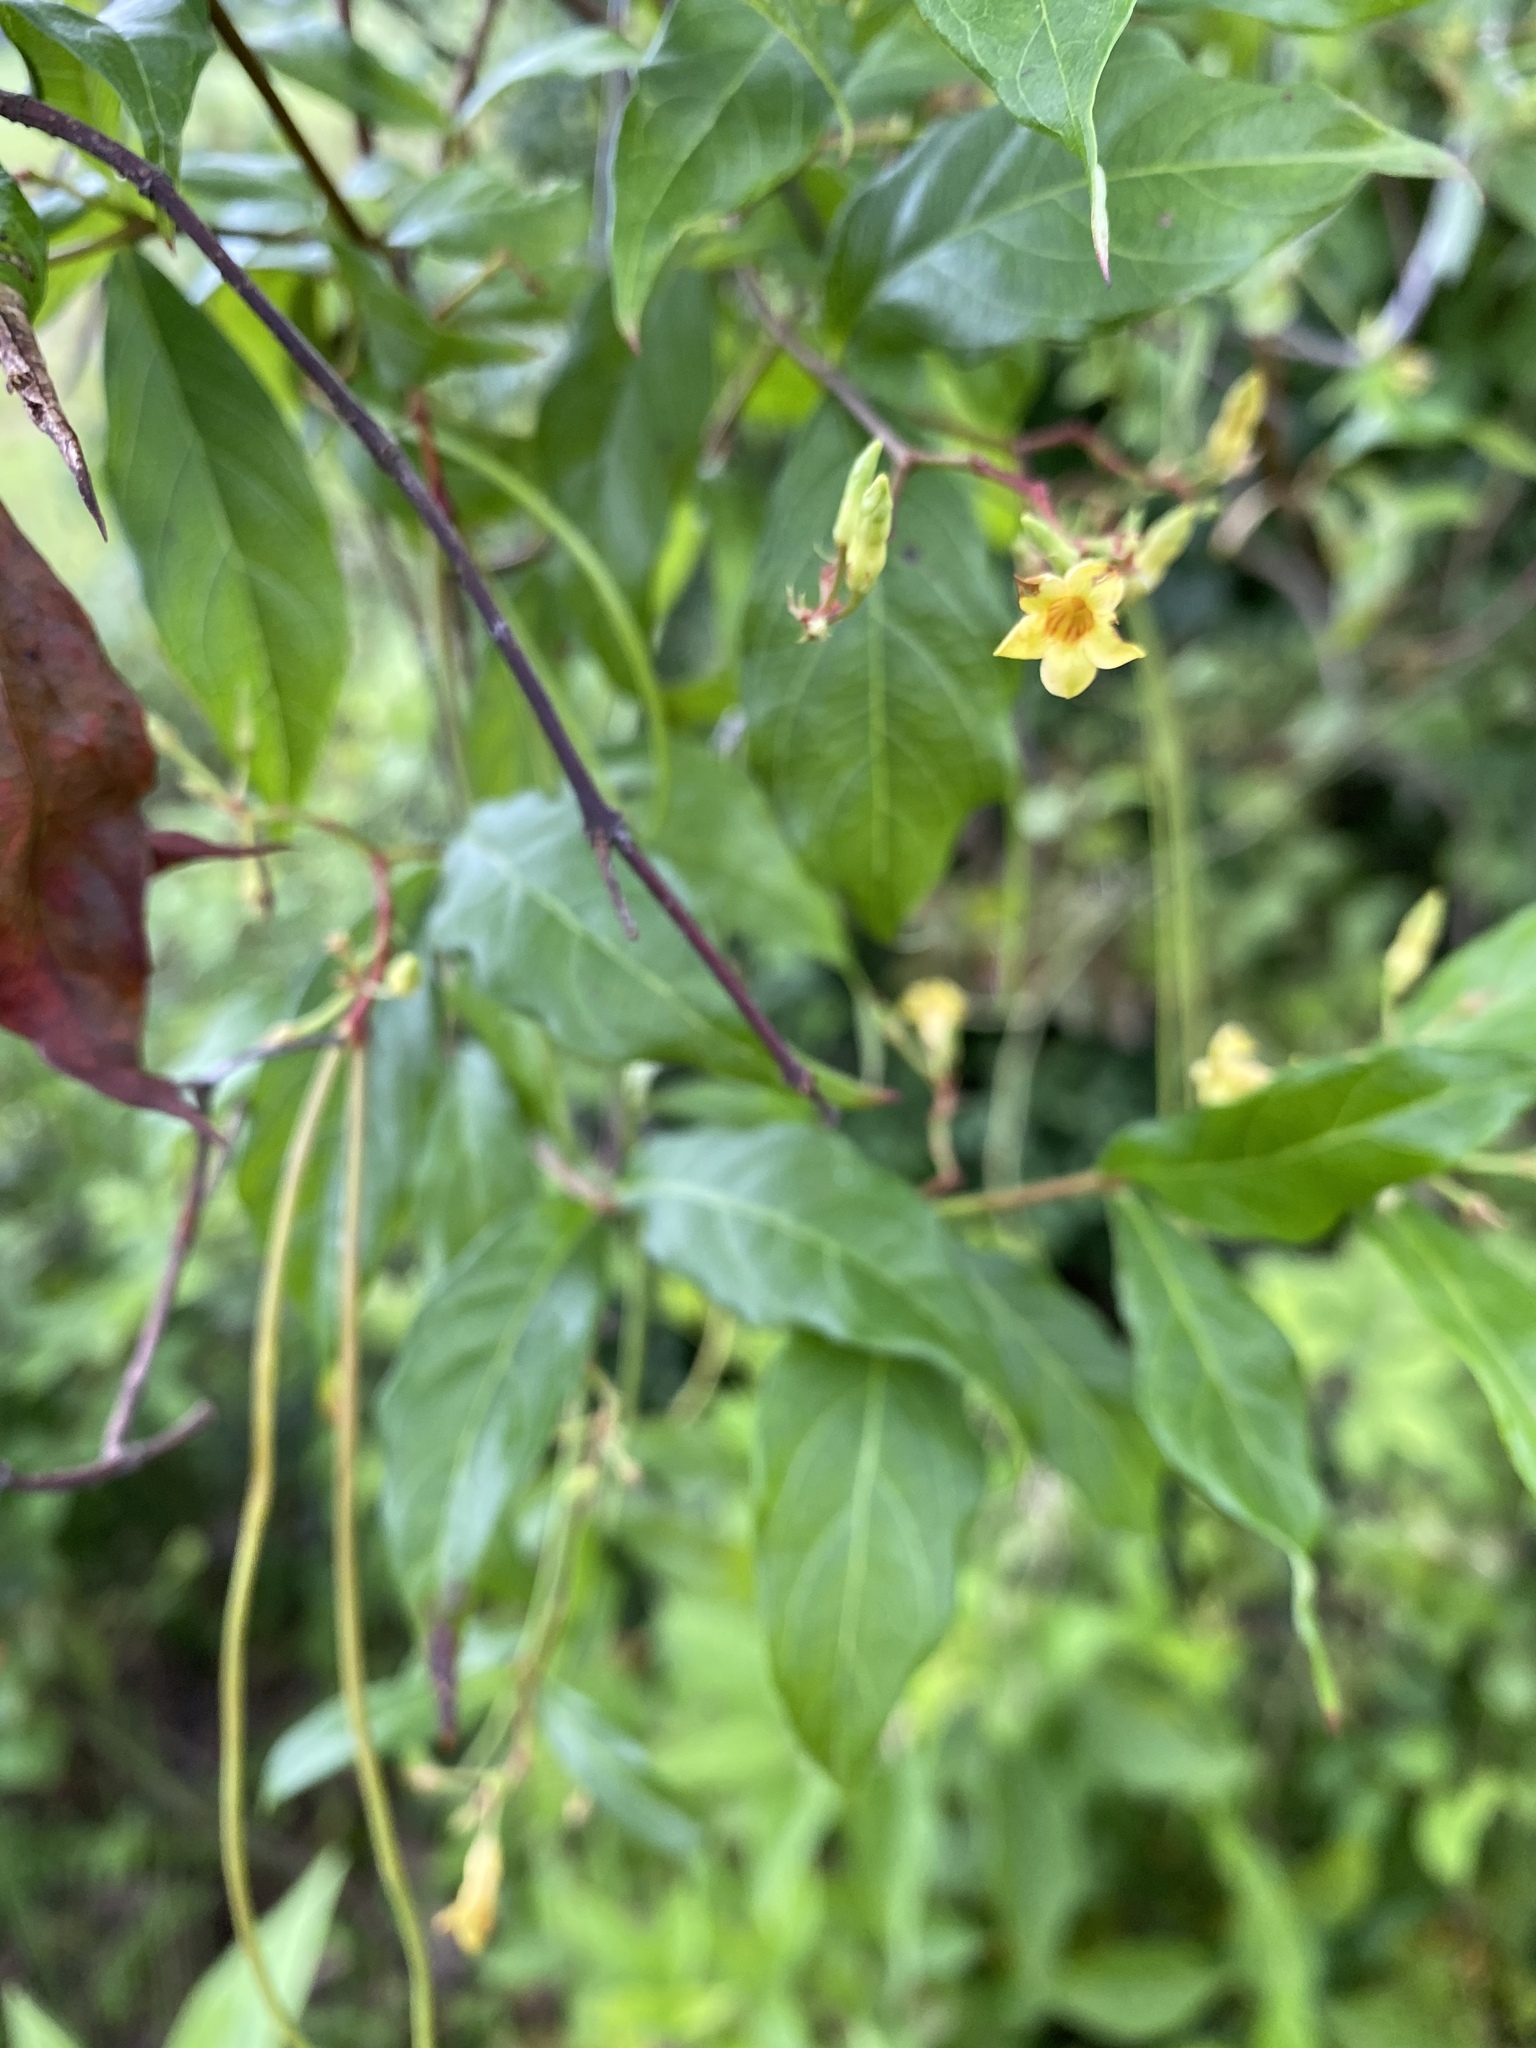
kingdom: Plantae
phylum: Tracheophyta
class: Magnoliopsida
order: Gentianales
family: Apocynaceae
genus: Thyrsanthella
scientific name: Thyrsanthella difformis
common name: Climbing dogbane
